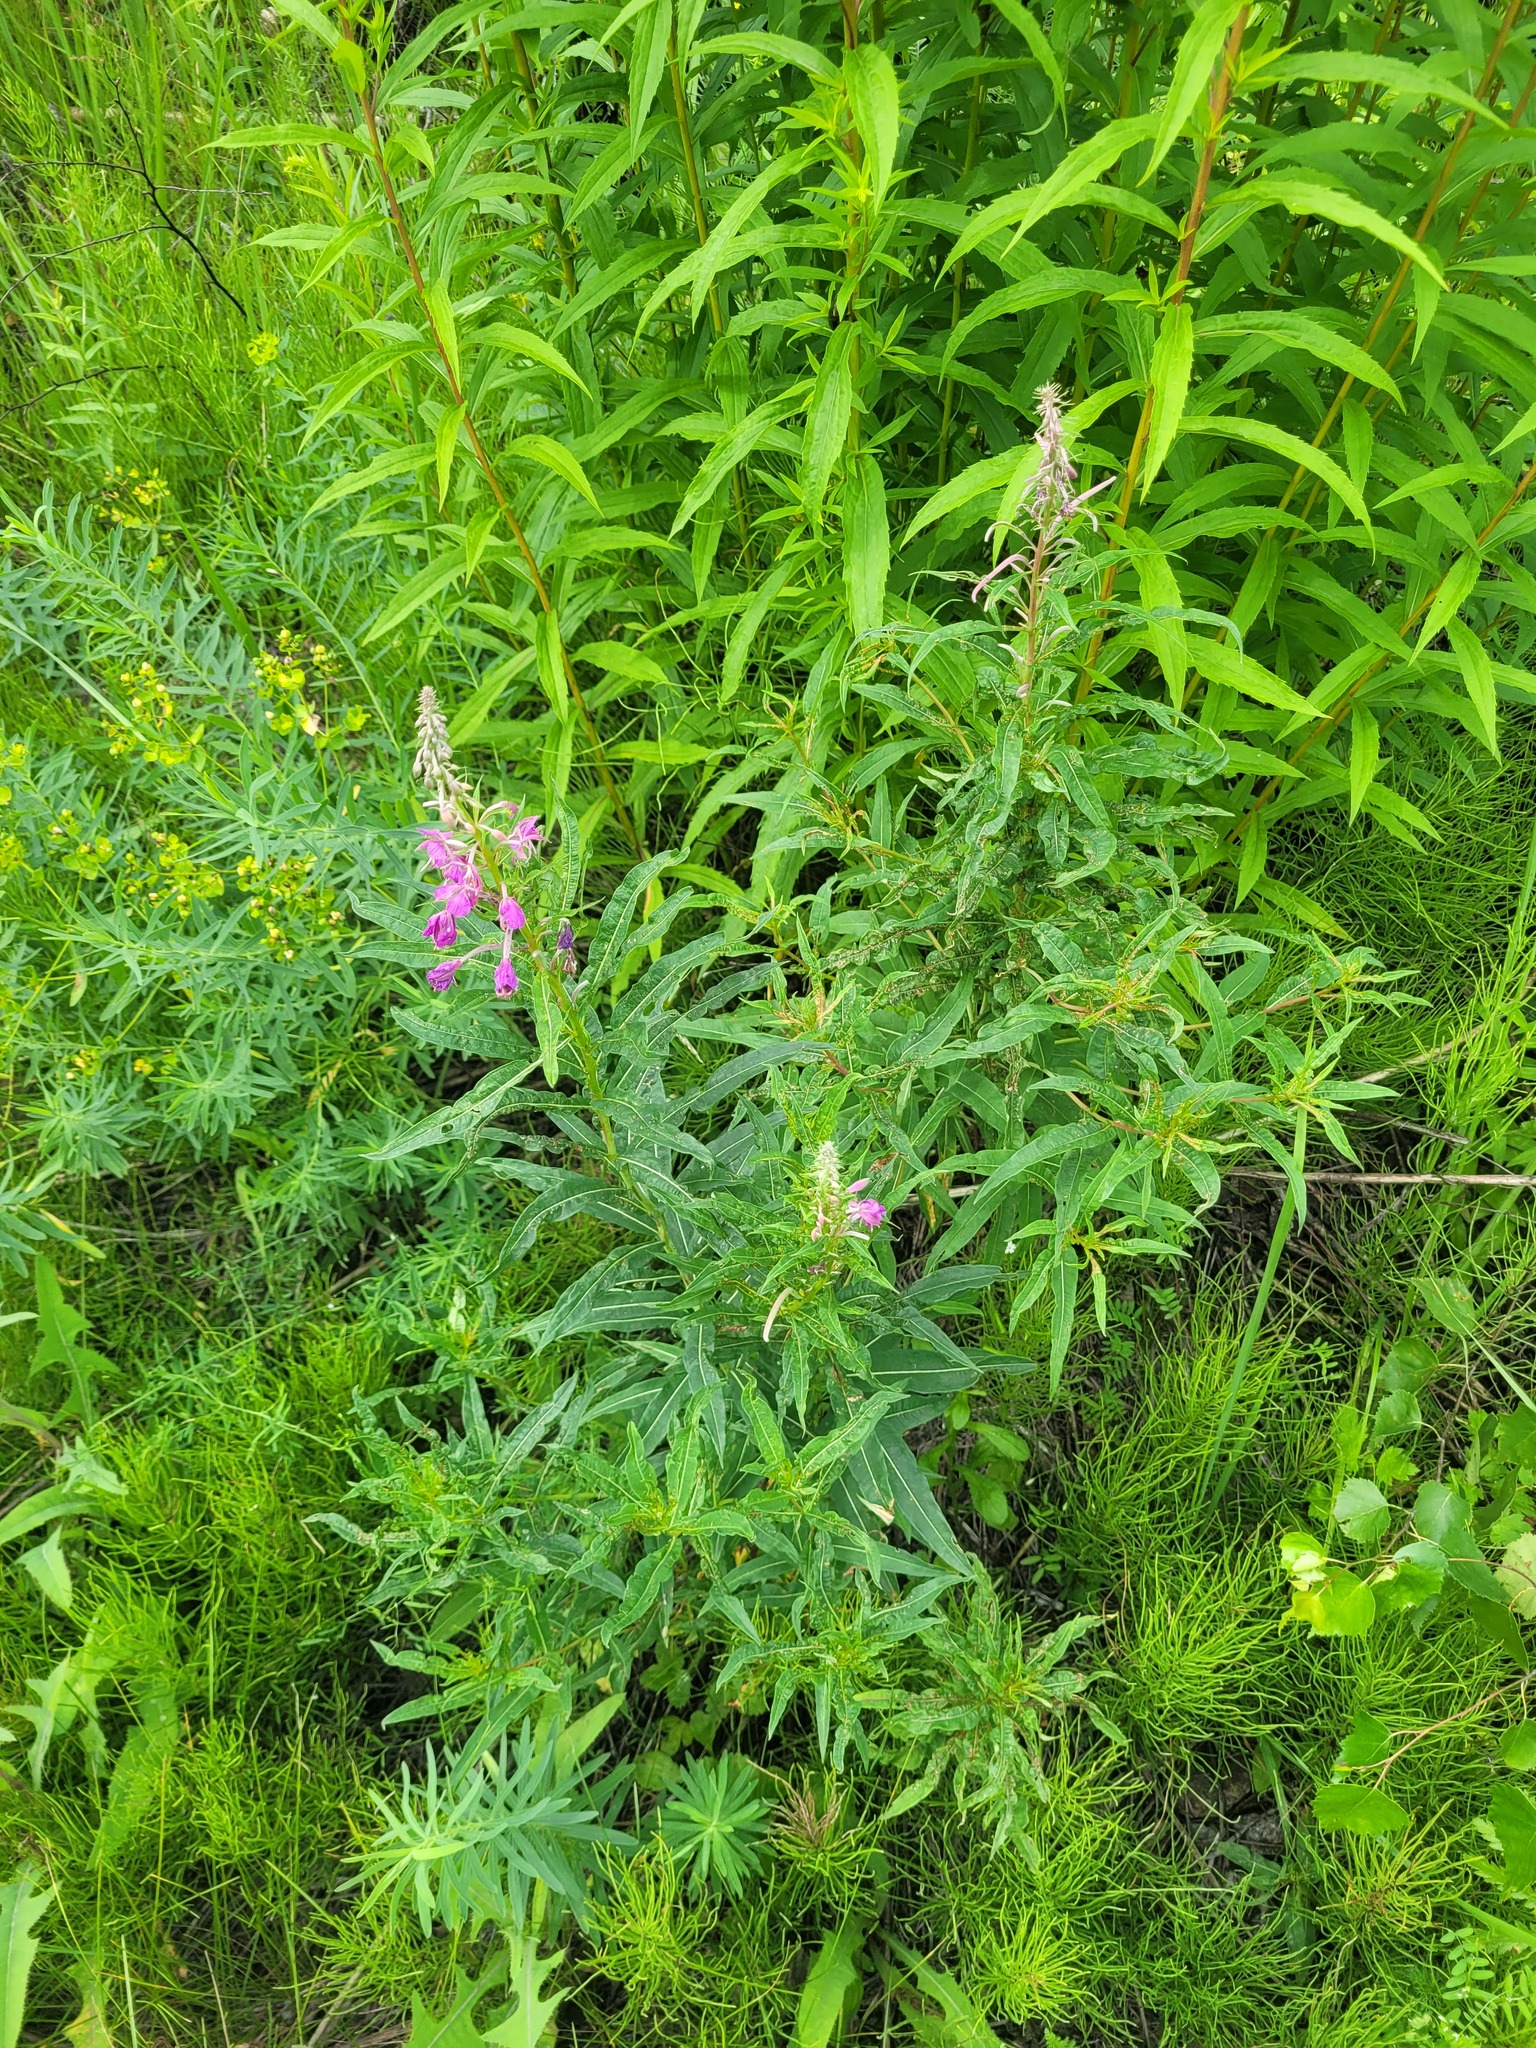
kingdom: Plantae
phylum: Tracheophyta
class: Magnoliopsida
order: Myrtales
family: Onagraceae
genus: Chamaenerion
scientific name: Chamaenerion angustifolium
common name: Fireweed
